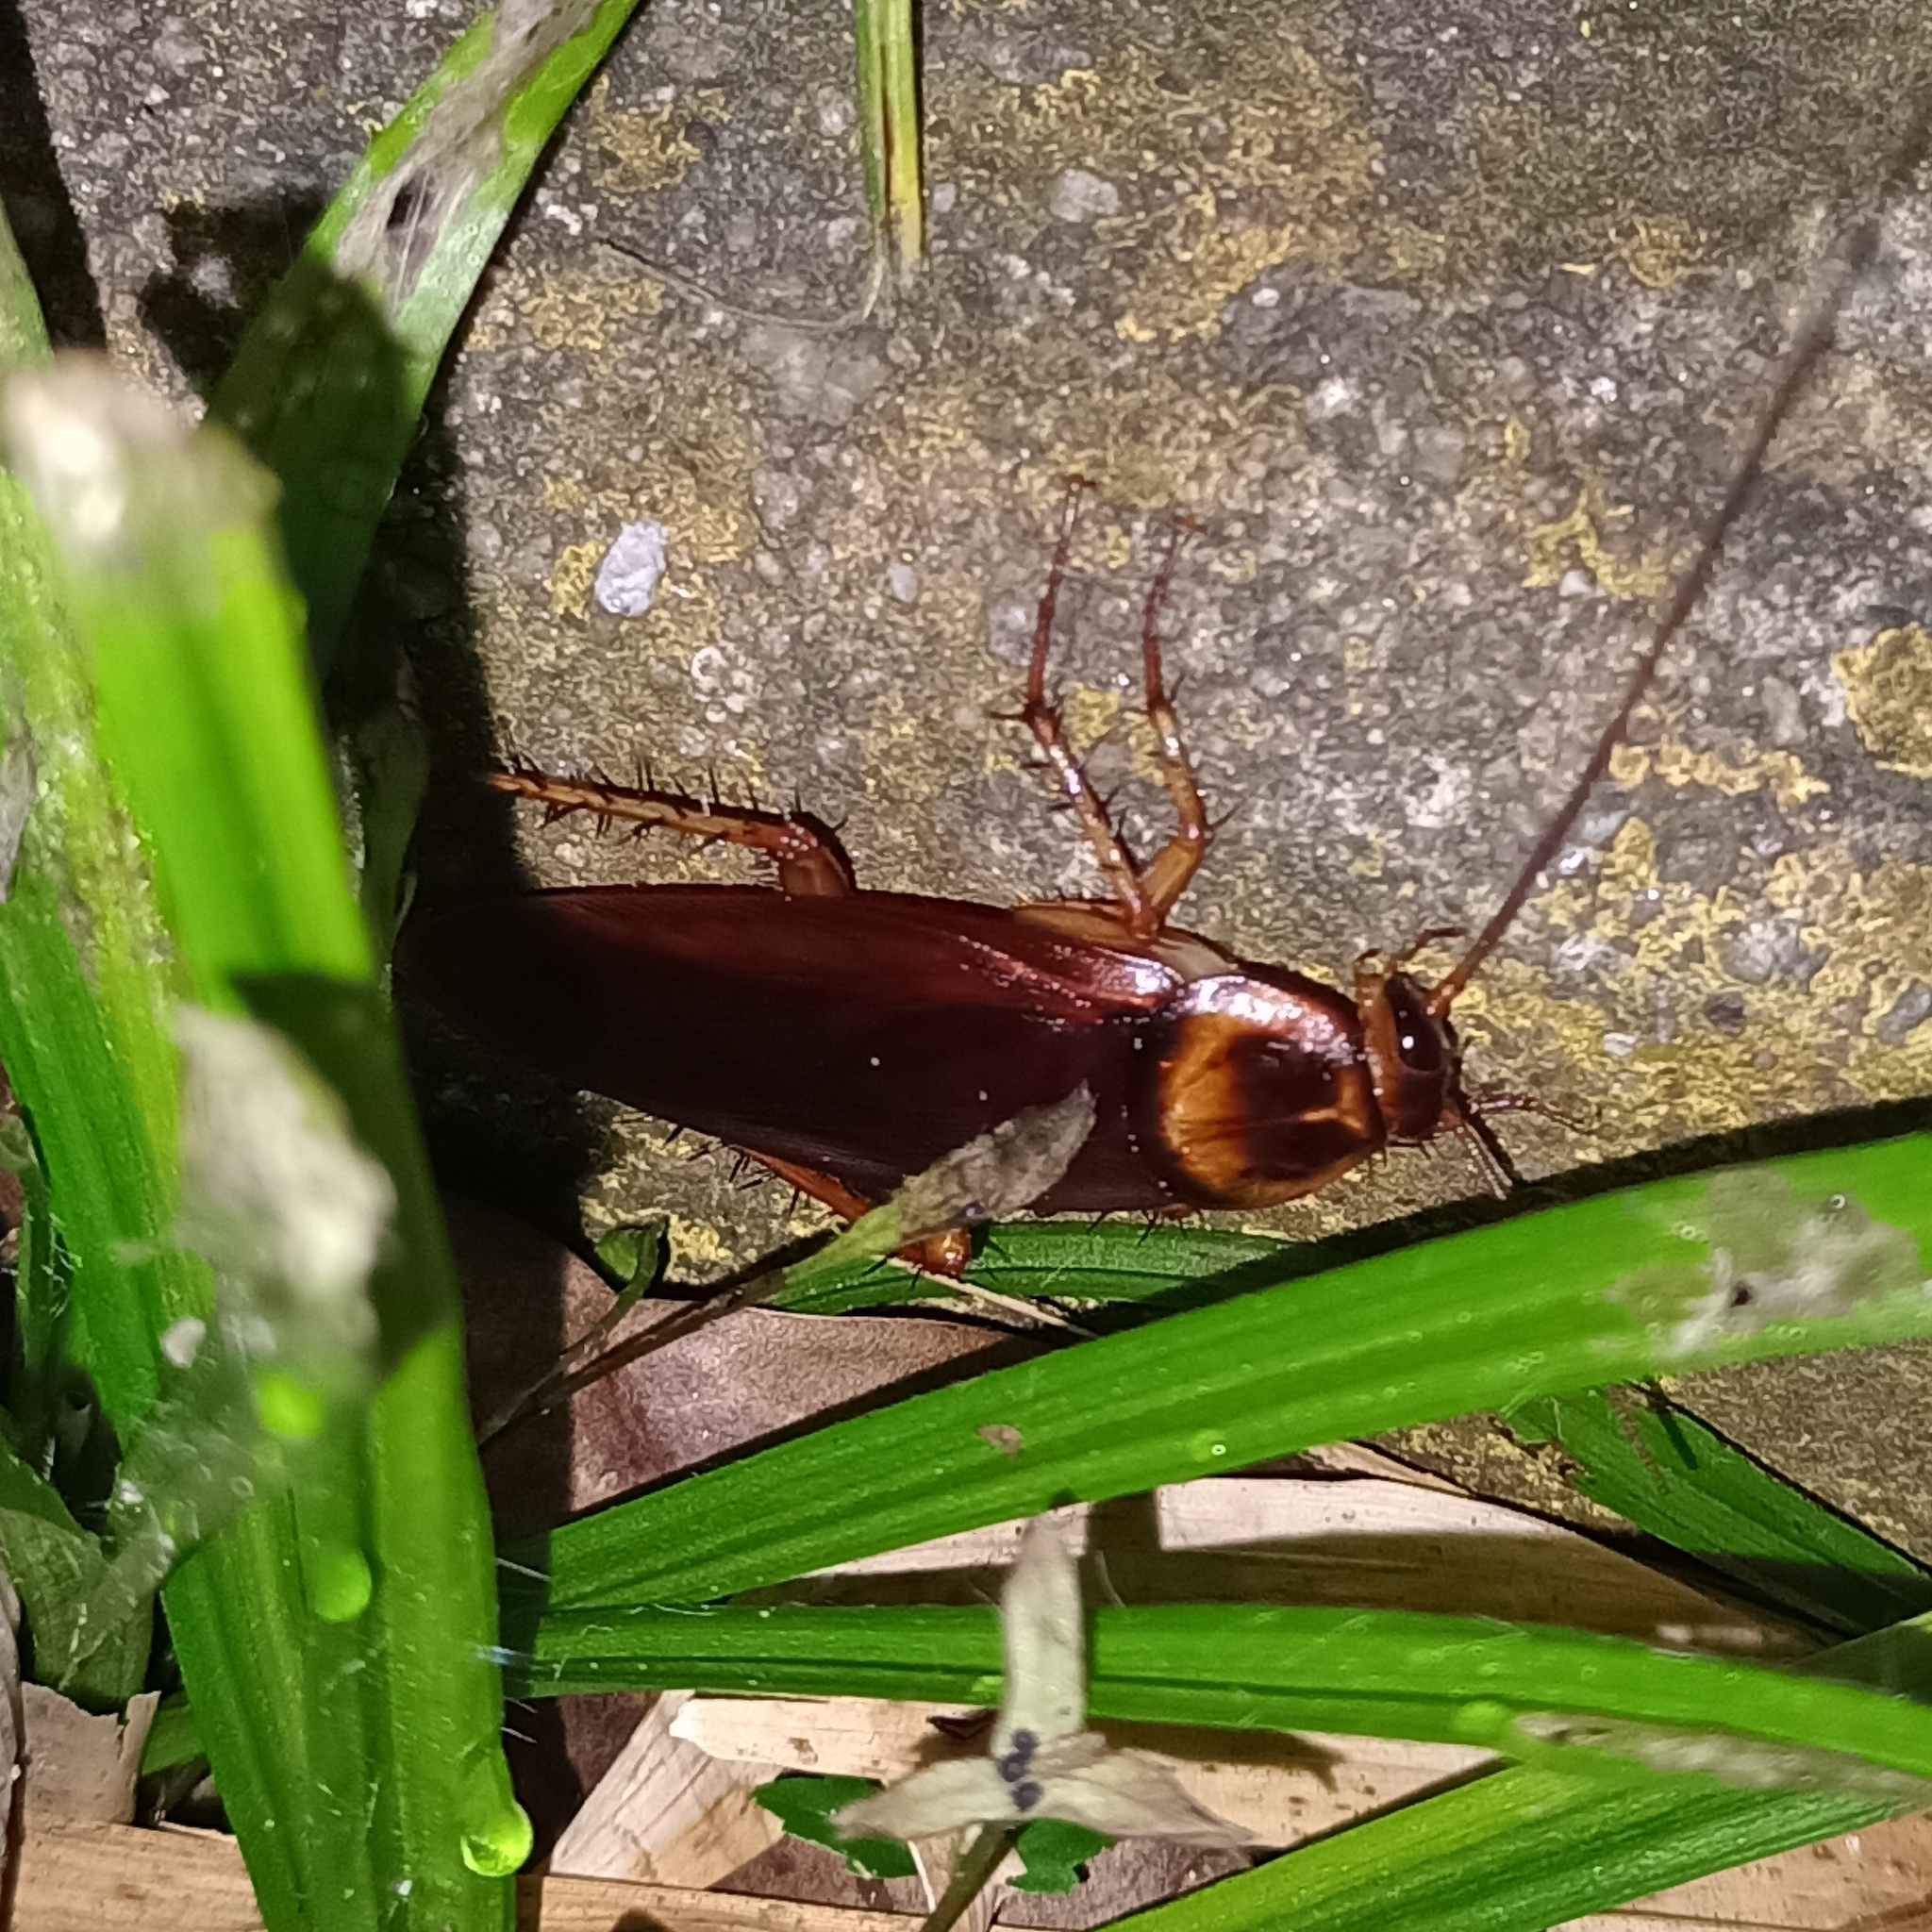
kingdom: Animalia
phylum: Arthropoda
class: Insecta
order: Blattodea
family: Blattidae
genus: Periplaneta
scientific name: Periplaneta americana
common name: American cockroach
